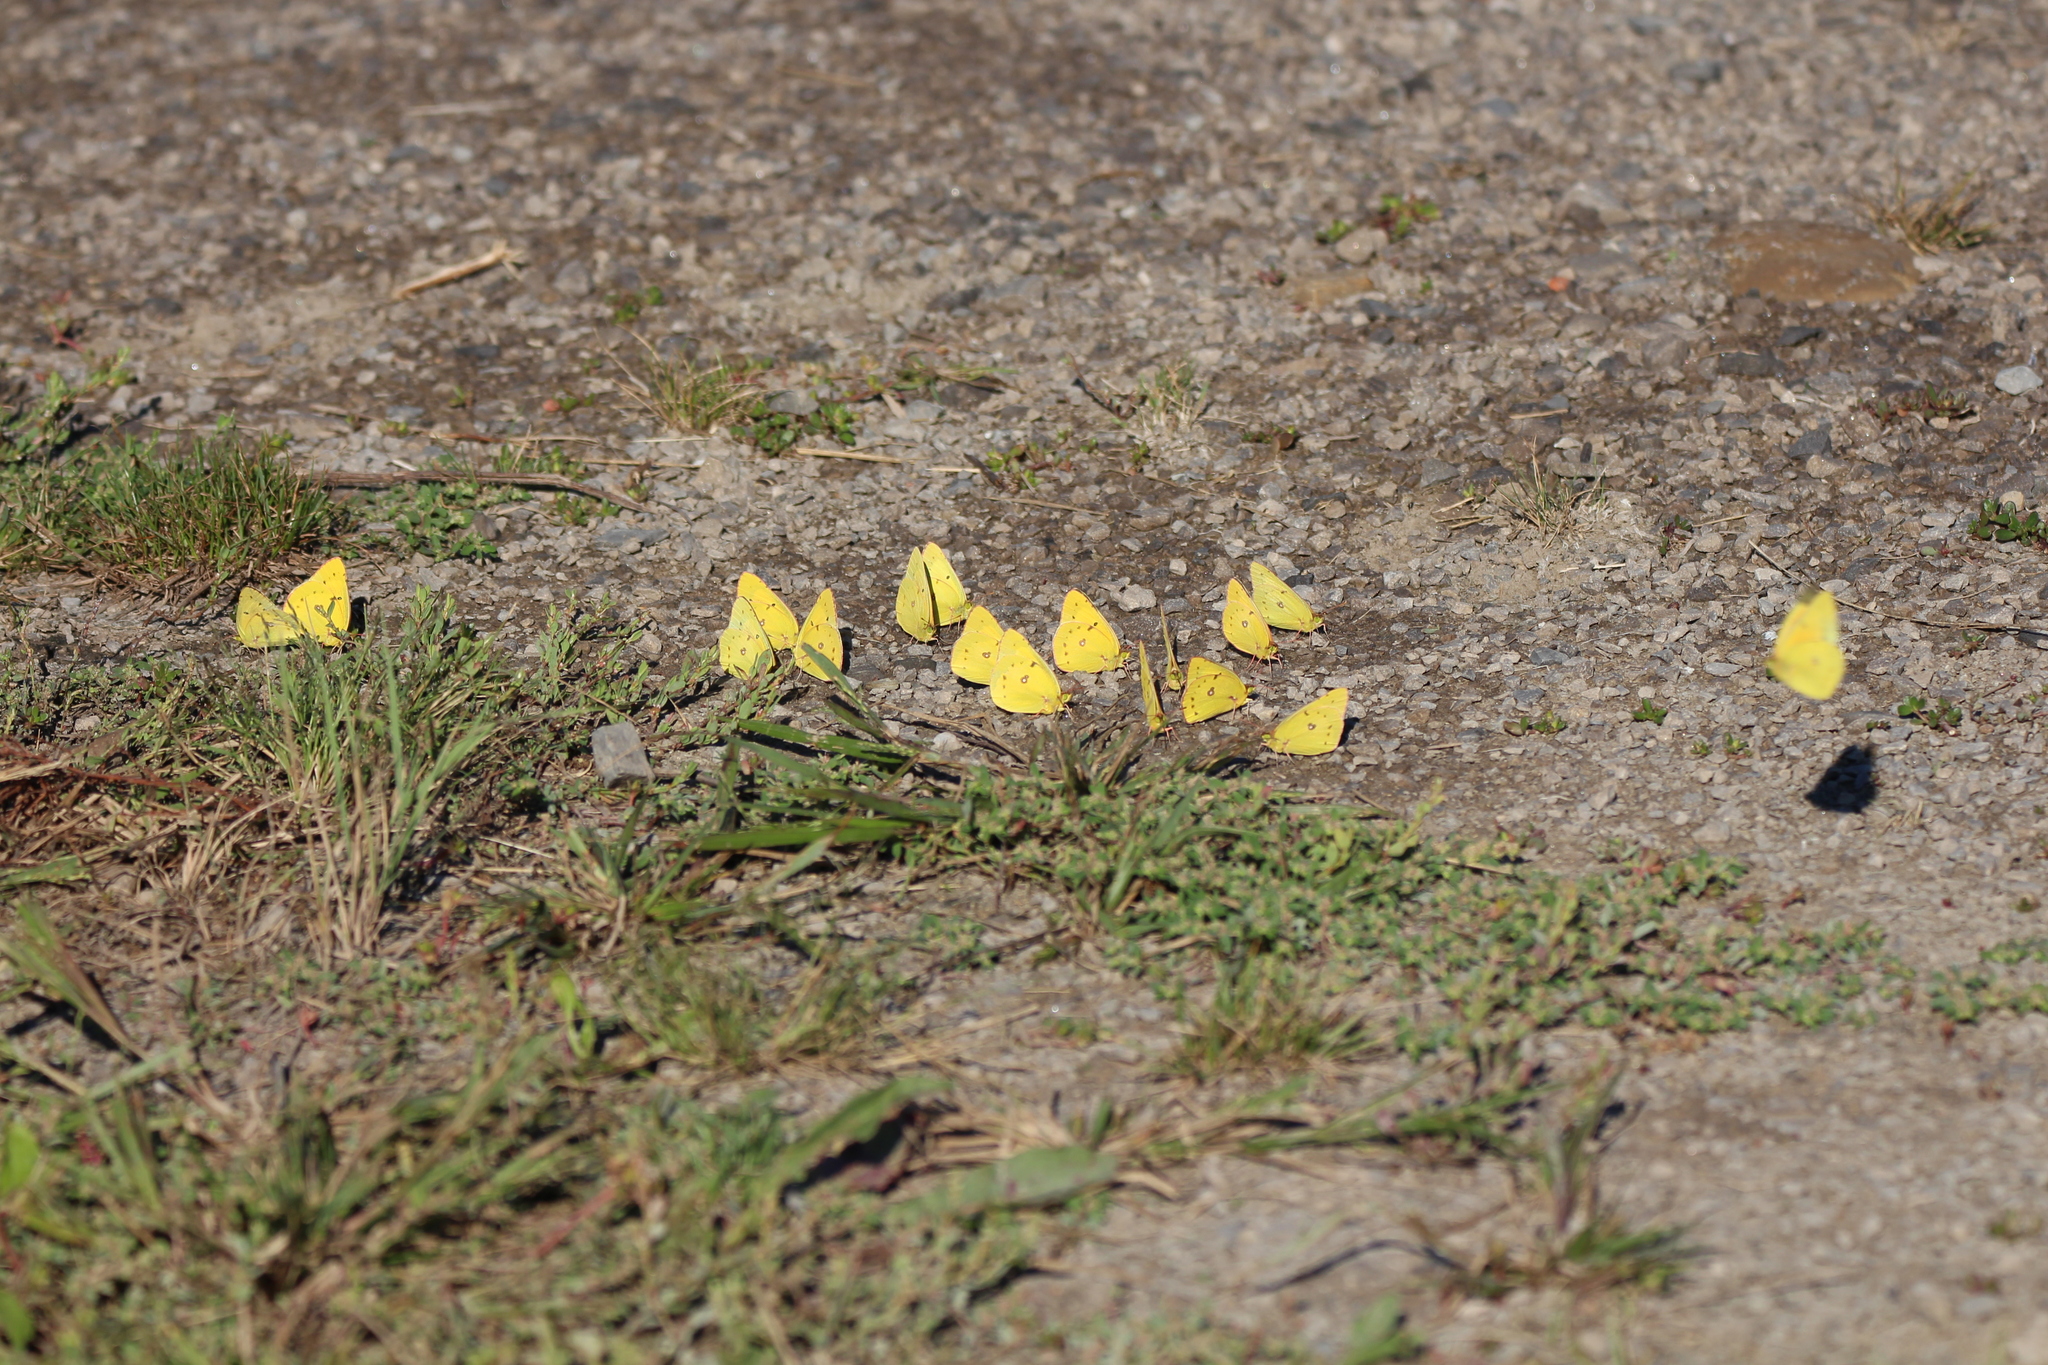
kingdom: Animalia
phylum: Arthropoda
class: Insecta
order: Lepidoptera
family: Pieridae
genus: Colias
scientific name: Colias philodice
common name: Clouded sulphur
